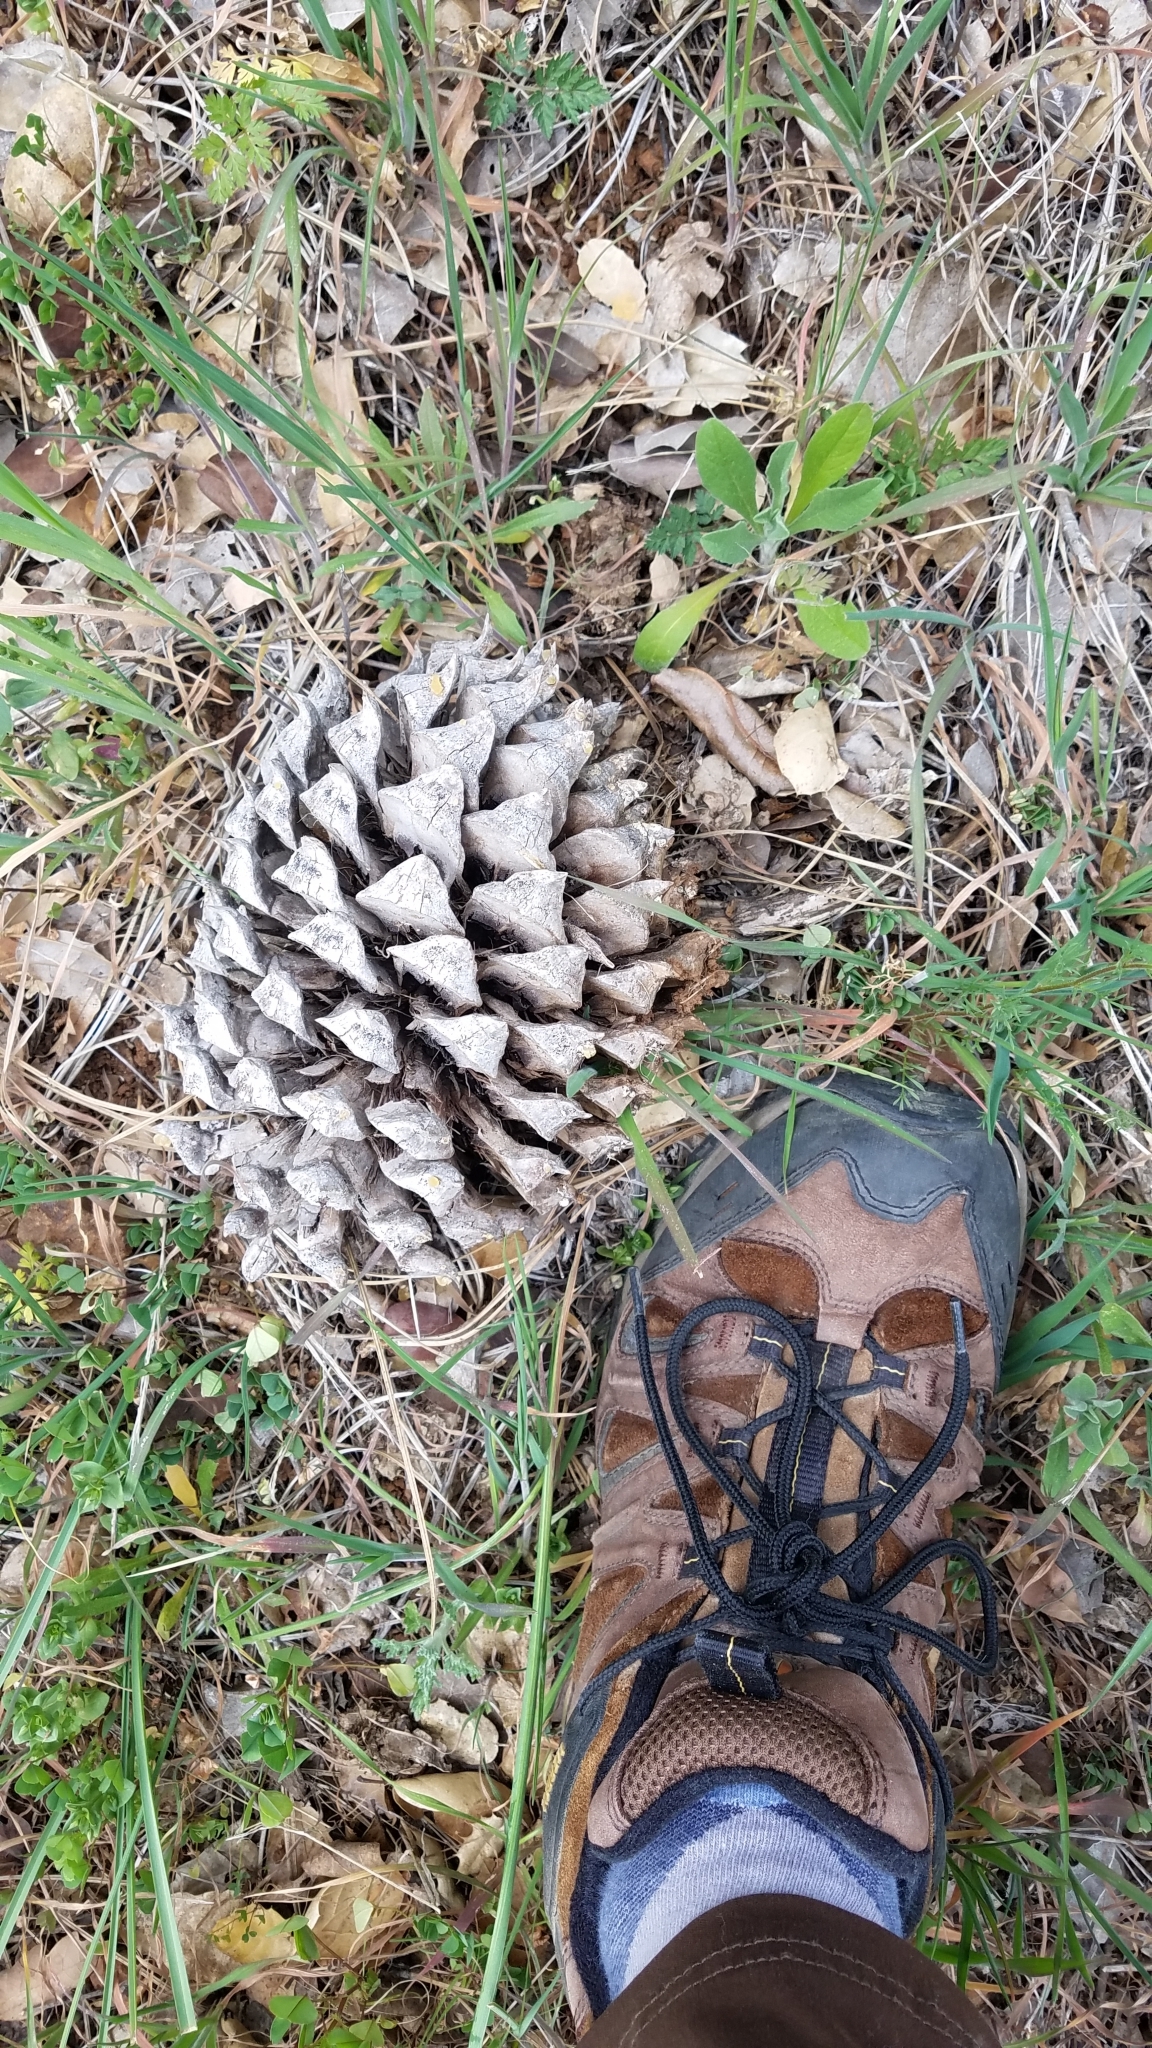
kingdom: Plantae
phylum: Tracheophyta
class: Pinopsida
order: Pinales
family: Pinaceae
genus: Pinus
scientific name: Pinus sabiniana
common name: Bull pine
